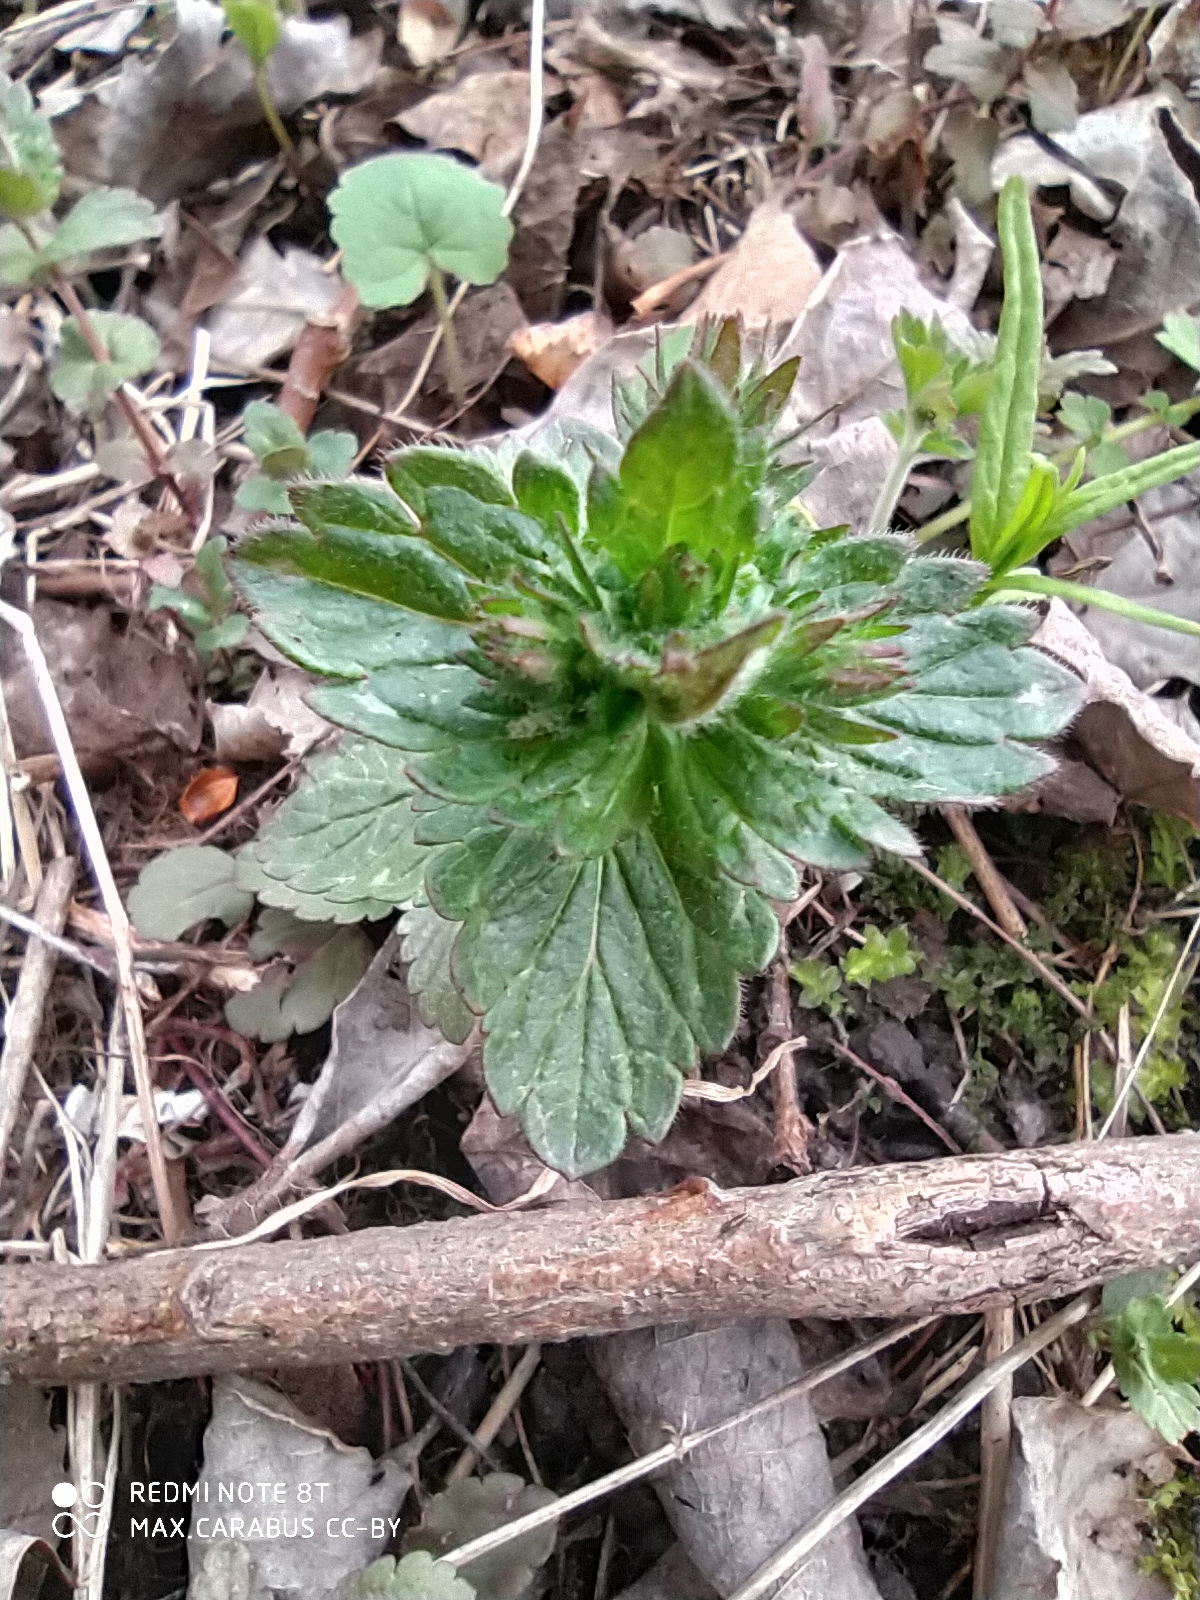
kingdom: Plantae
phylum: Tracheophyta
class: Magnoliopsida
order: Lamiales
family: Plantaginaceae
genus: Veronica
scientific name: Veronica chamaedrys
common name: Germander speedwell
